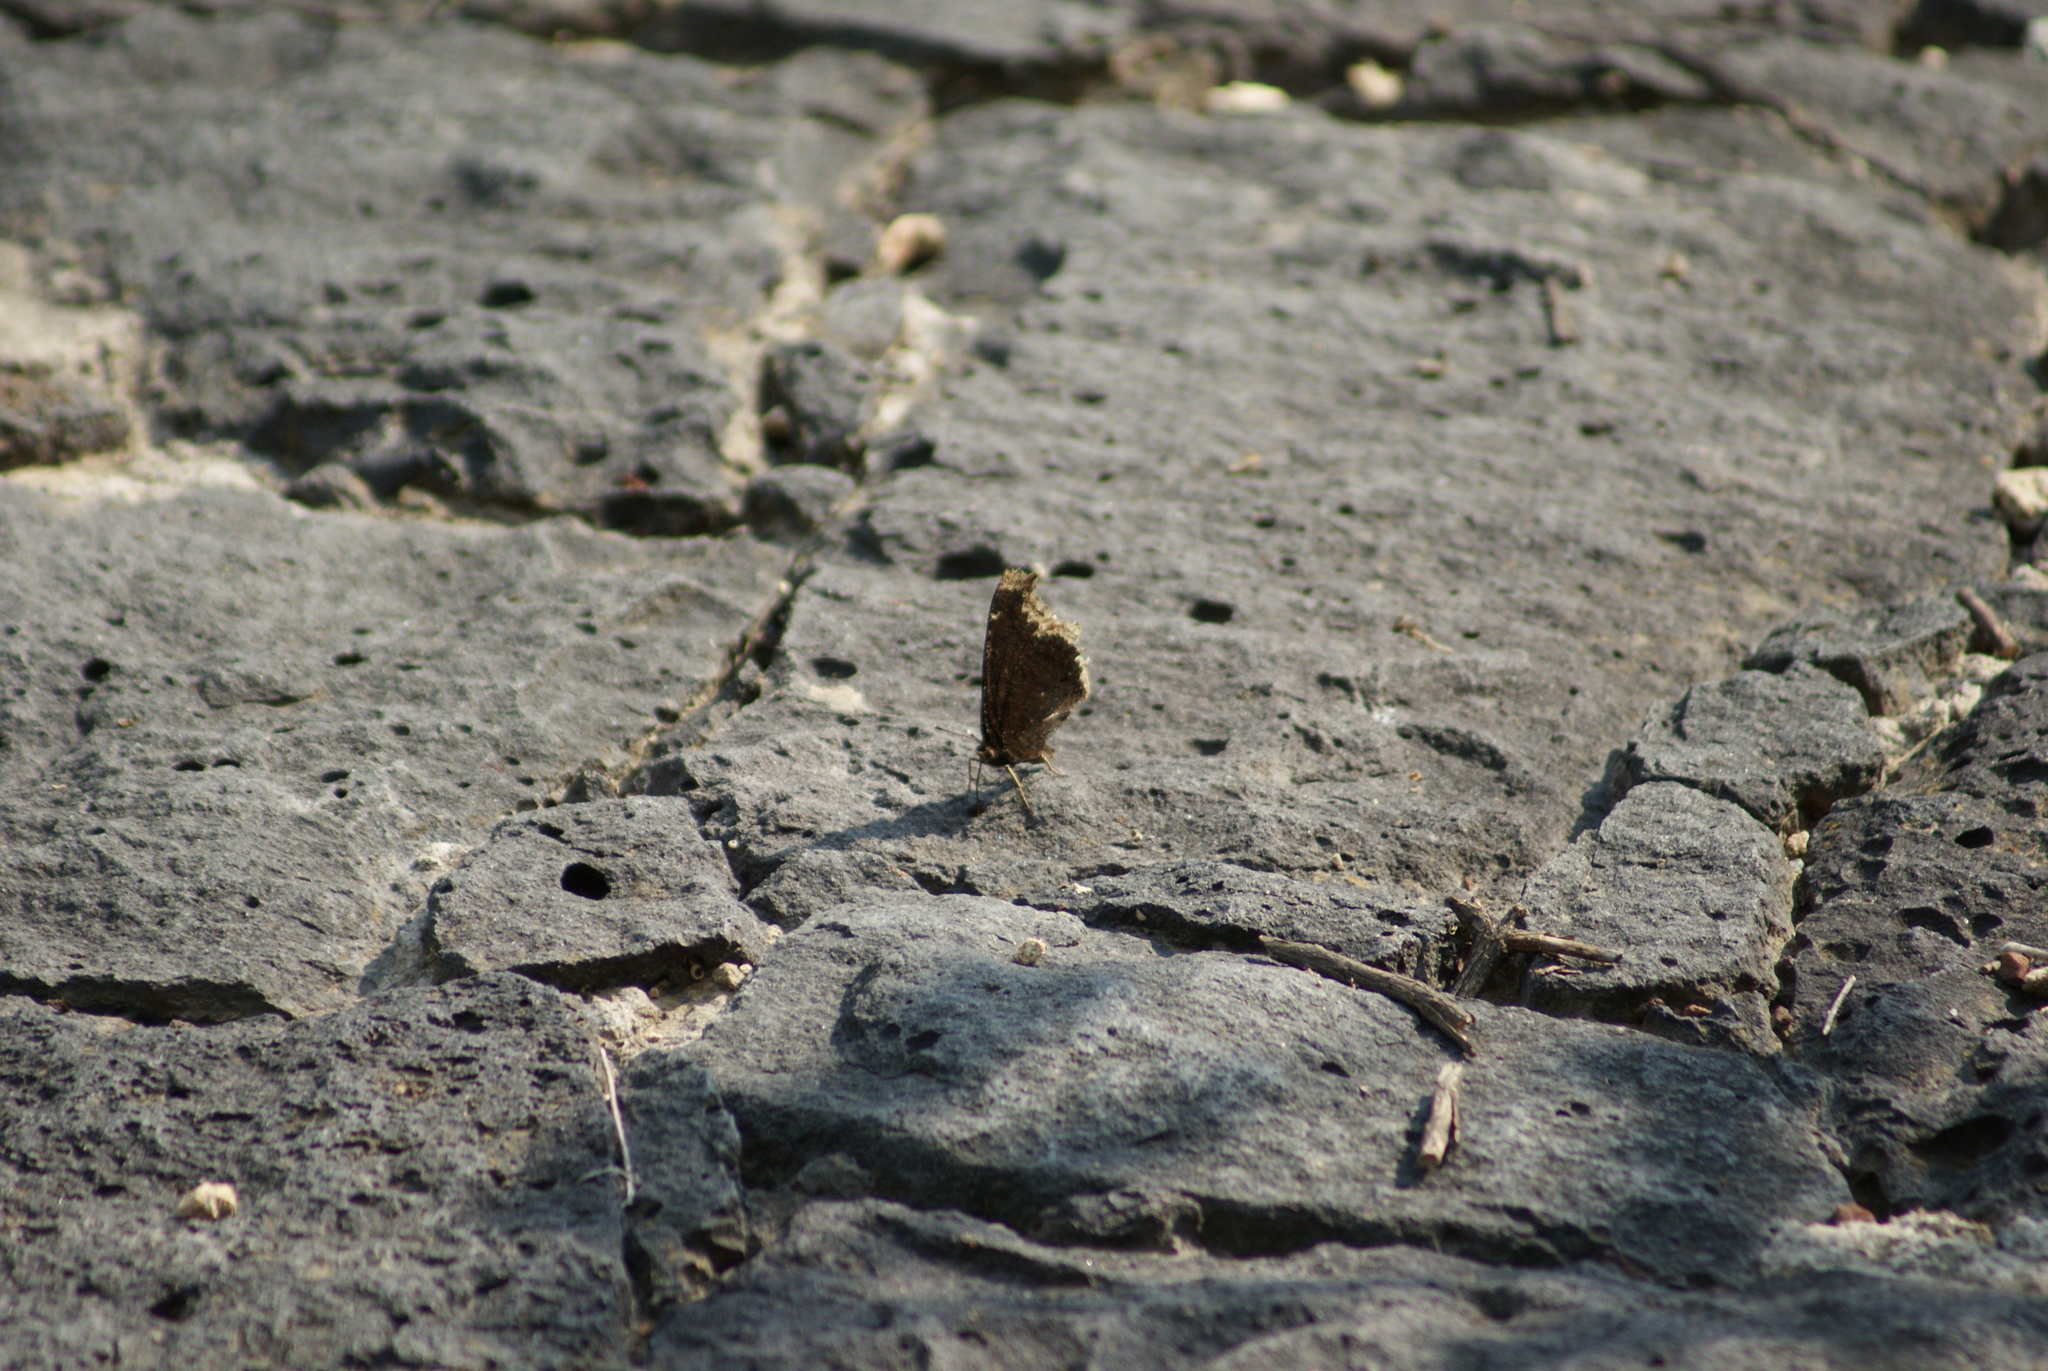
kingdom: Animalia
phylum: Arthropoda
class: Insecta
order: Lepidoptera
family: Nymphalidae
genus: Nymphalis
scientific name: Nymphalis antiopa
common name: Camberwell beauty
